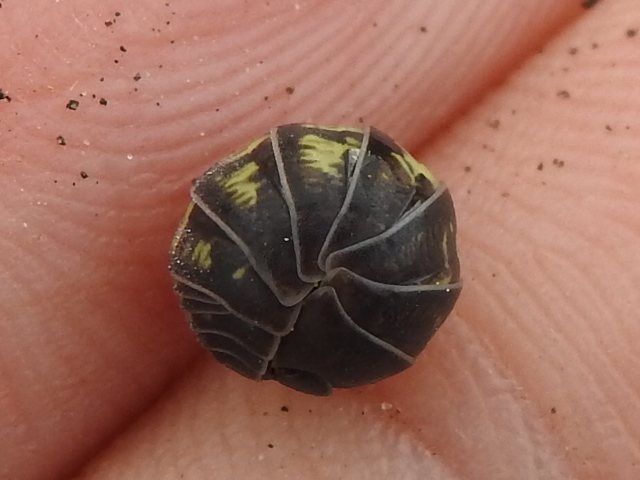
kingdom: Animalia
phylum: Arthropoda
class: Malacostraca
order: Isopoda
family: Armadillidiidae
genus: Armadillidium
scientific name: Armadillidium vulgare
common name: Common pill woodlouse
